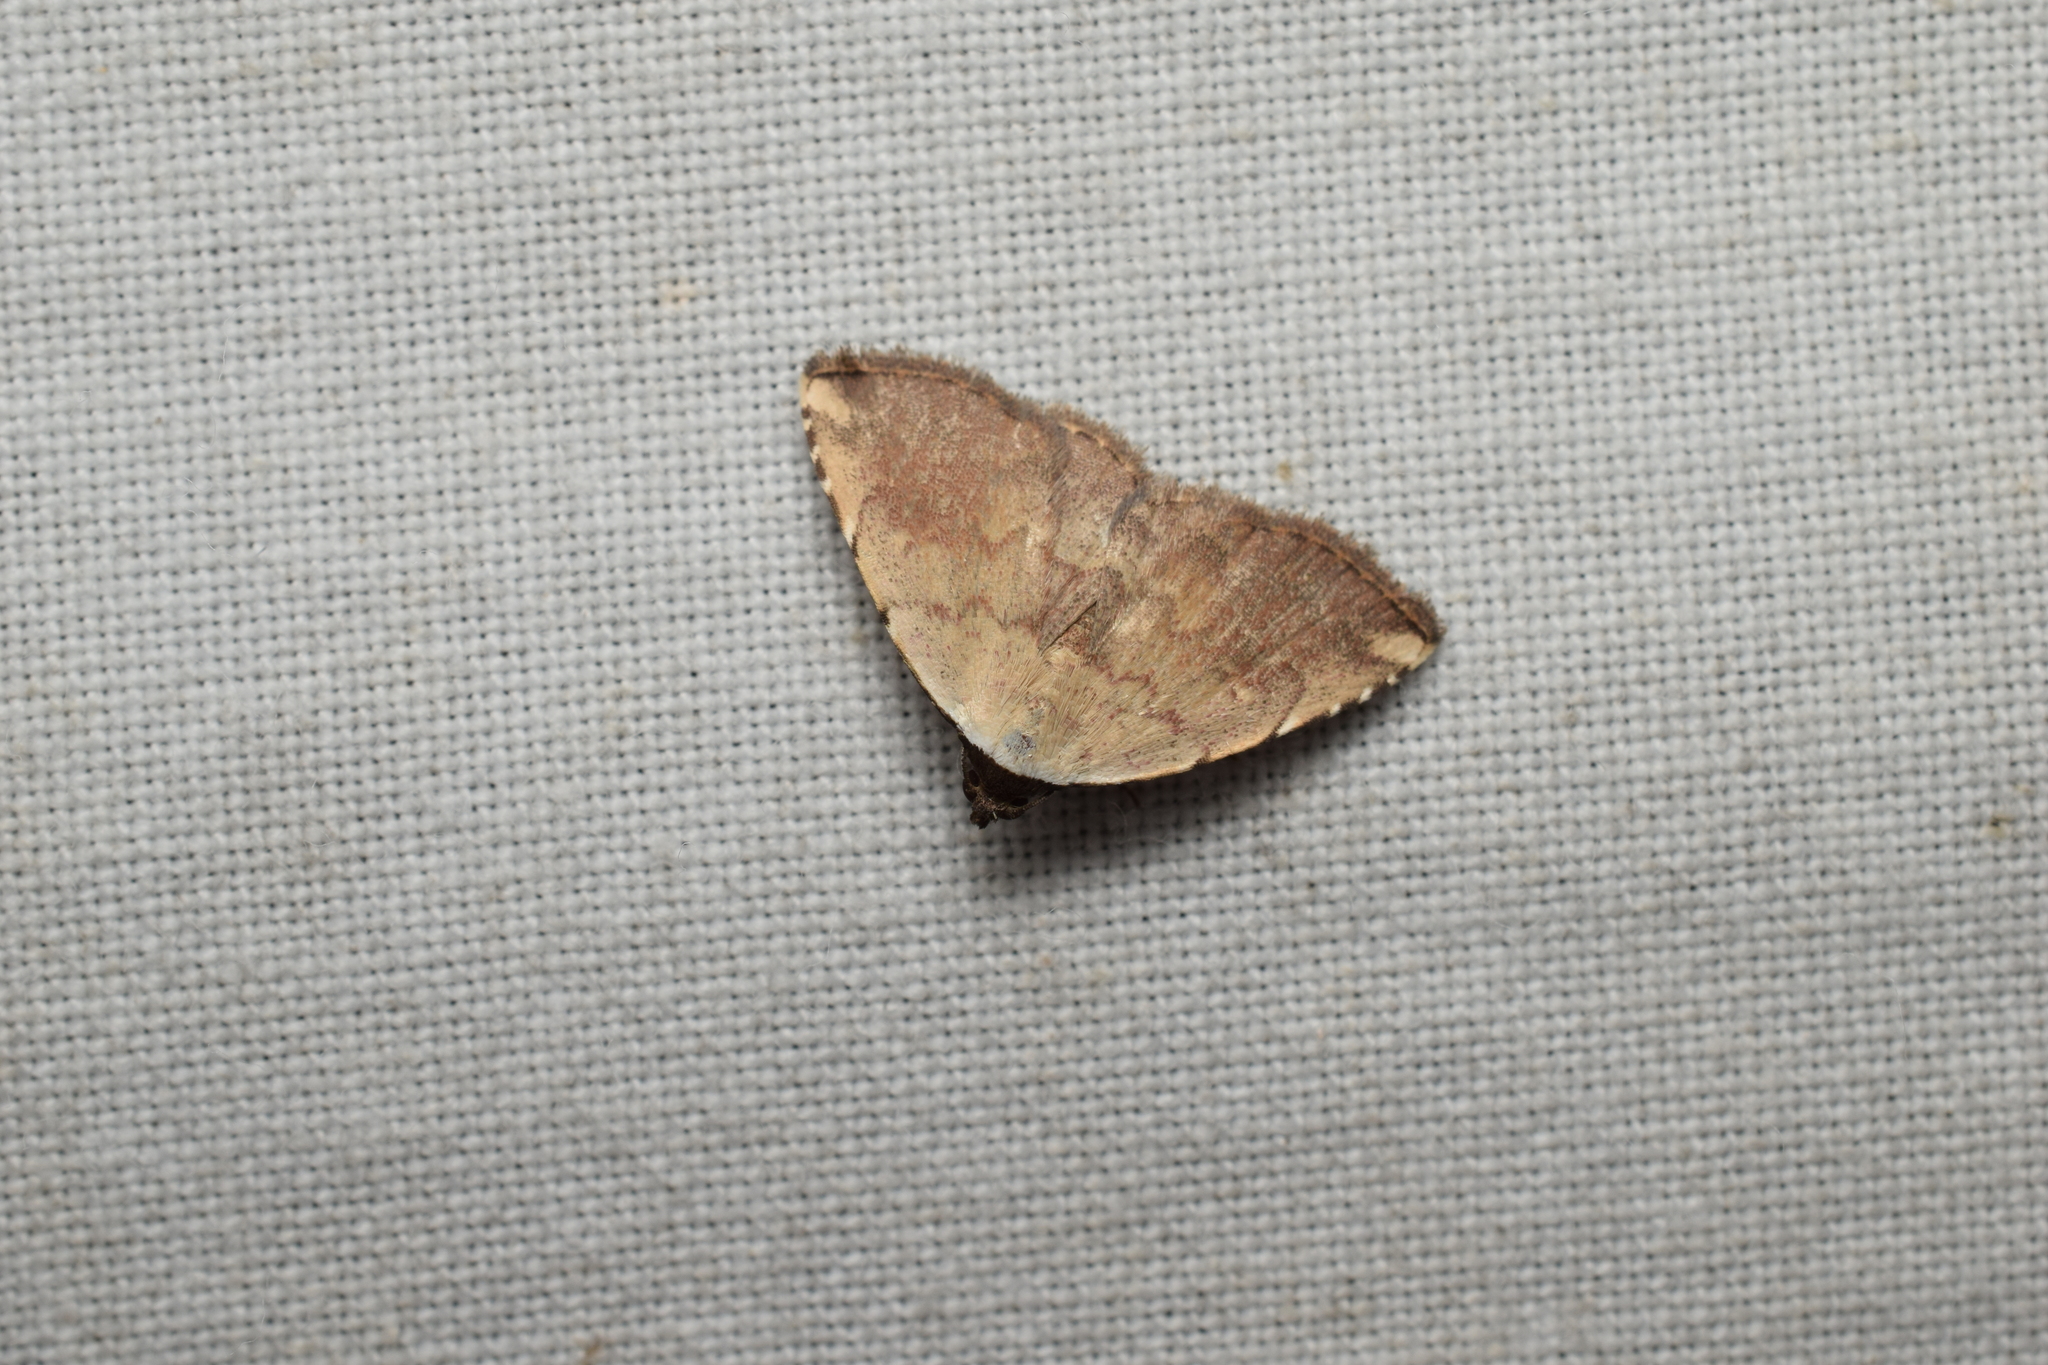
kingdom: Animalia
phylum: Arthropoda
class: Insecta
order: Lepidoptera
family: Noctuidae
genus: Autoba
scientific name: Autoba tristalis
